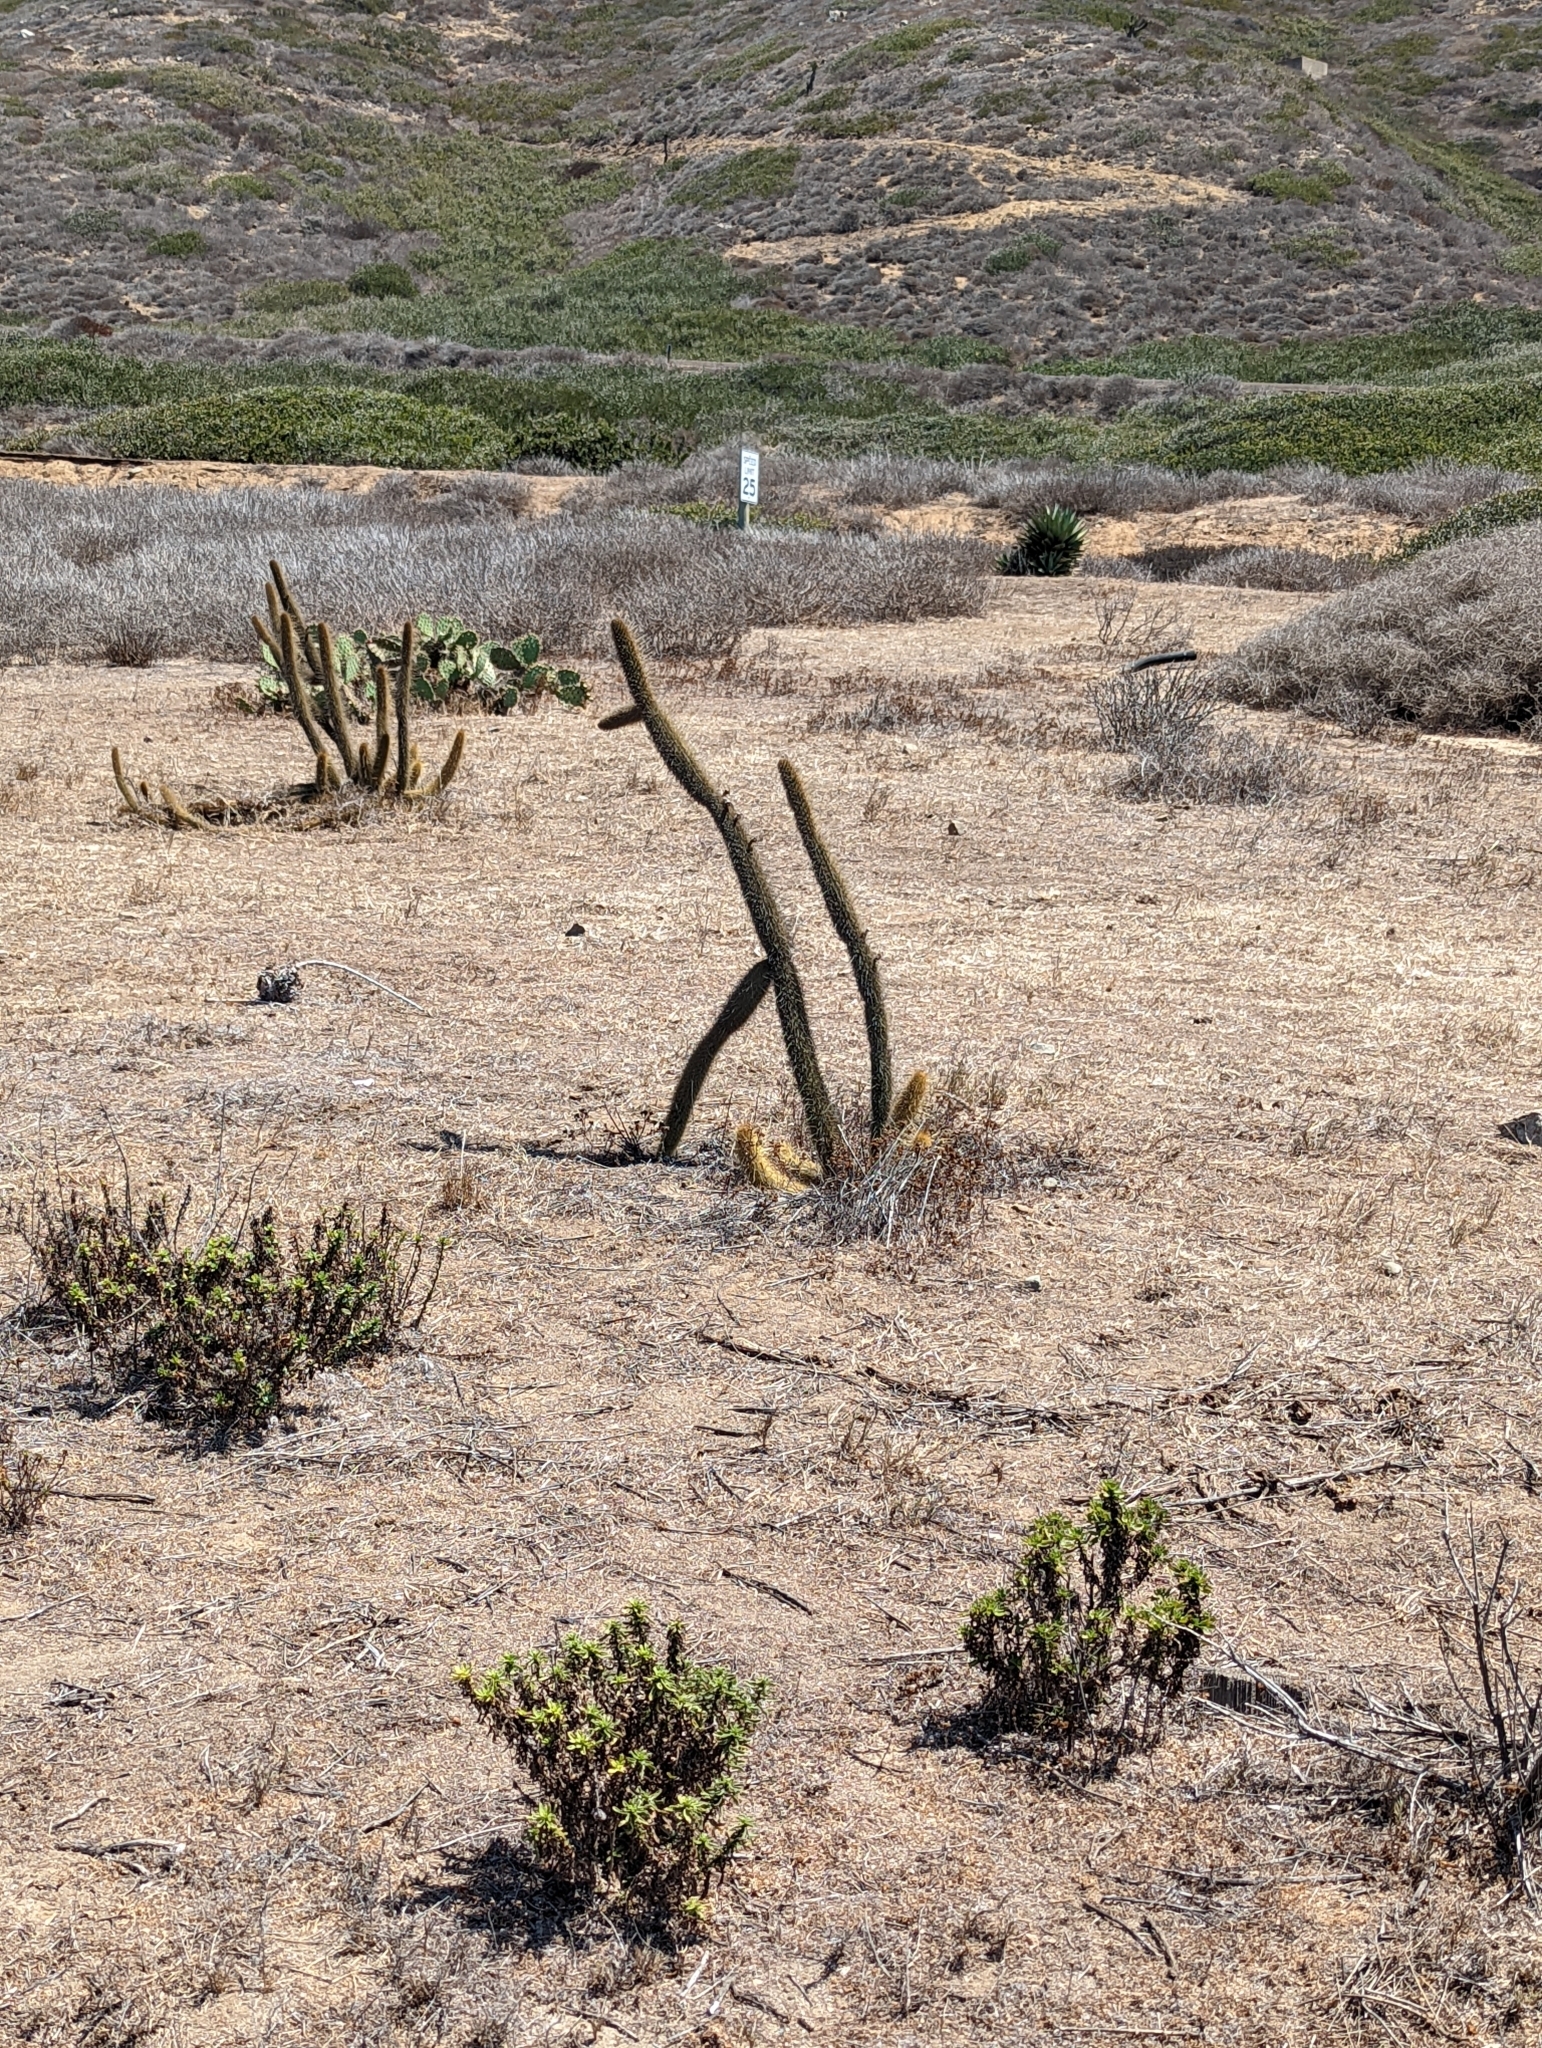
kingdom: Plantae
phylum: Tracheophyta
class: Magnoliopsida
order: Caryophyllales
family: Cactaceae
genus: Bergerocactus
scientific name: Bergerocactus emoryi
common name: Golden snakecactus
